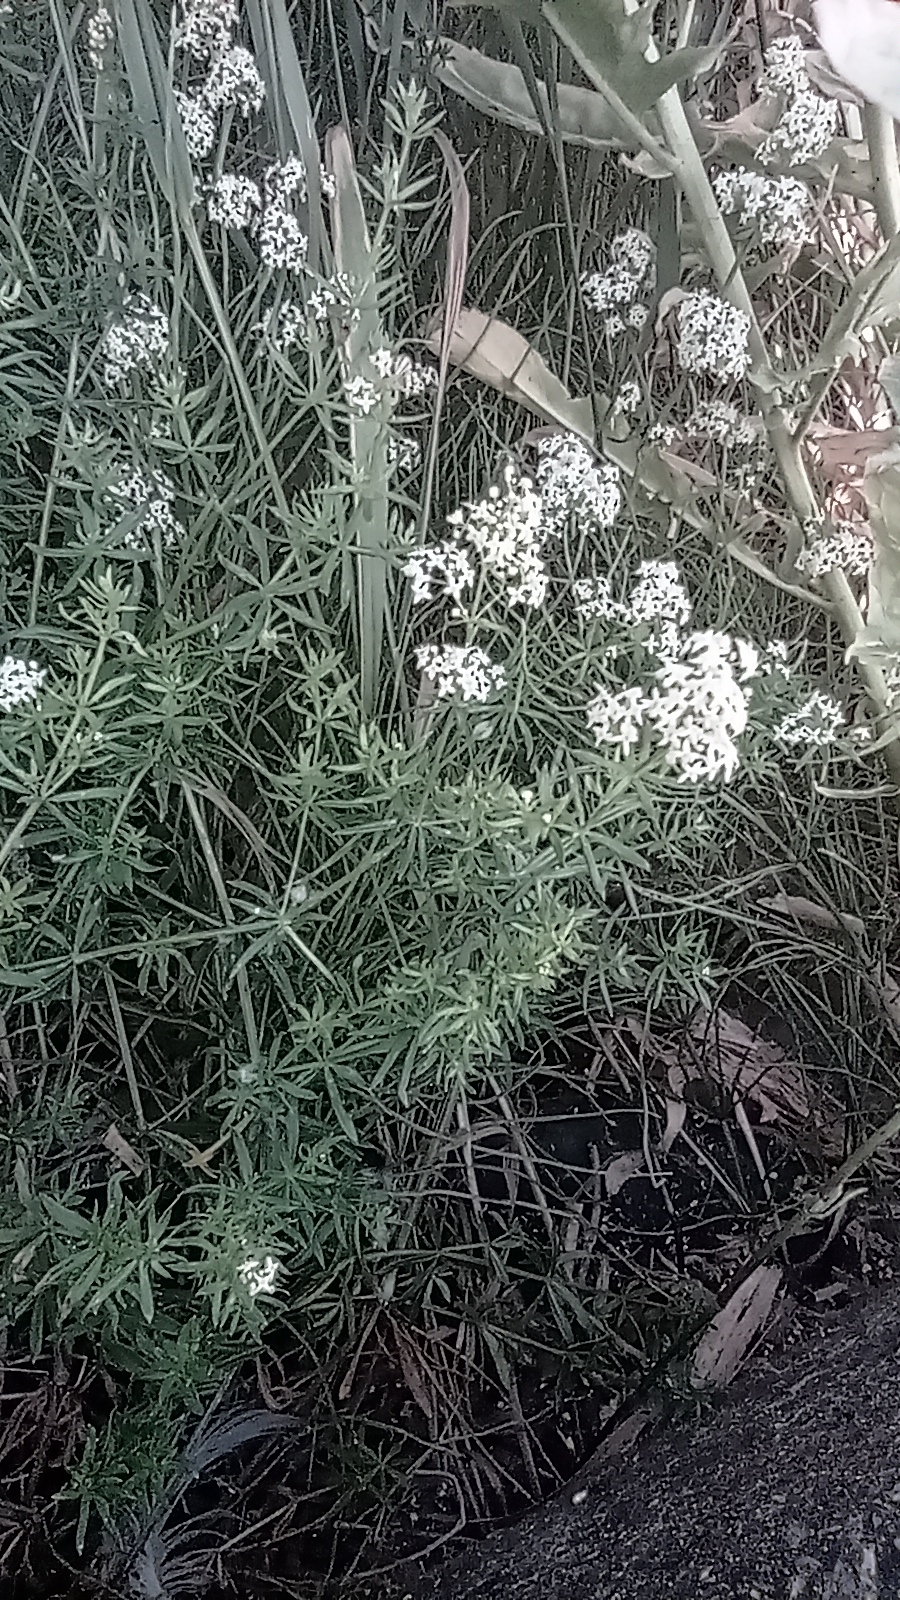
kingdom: Plantae
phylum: Tracheophyta
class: Magnoliopsida
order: Gentianales
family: Rubiaceae
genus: Galium
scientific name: Galium mollugo
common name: Hedge bedstraw
